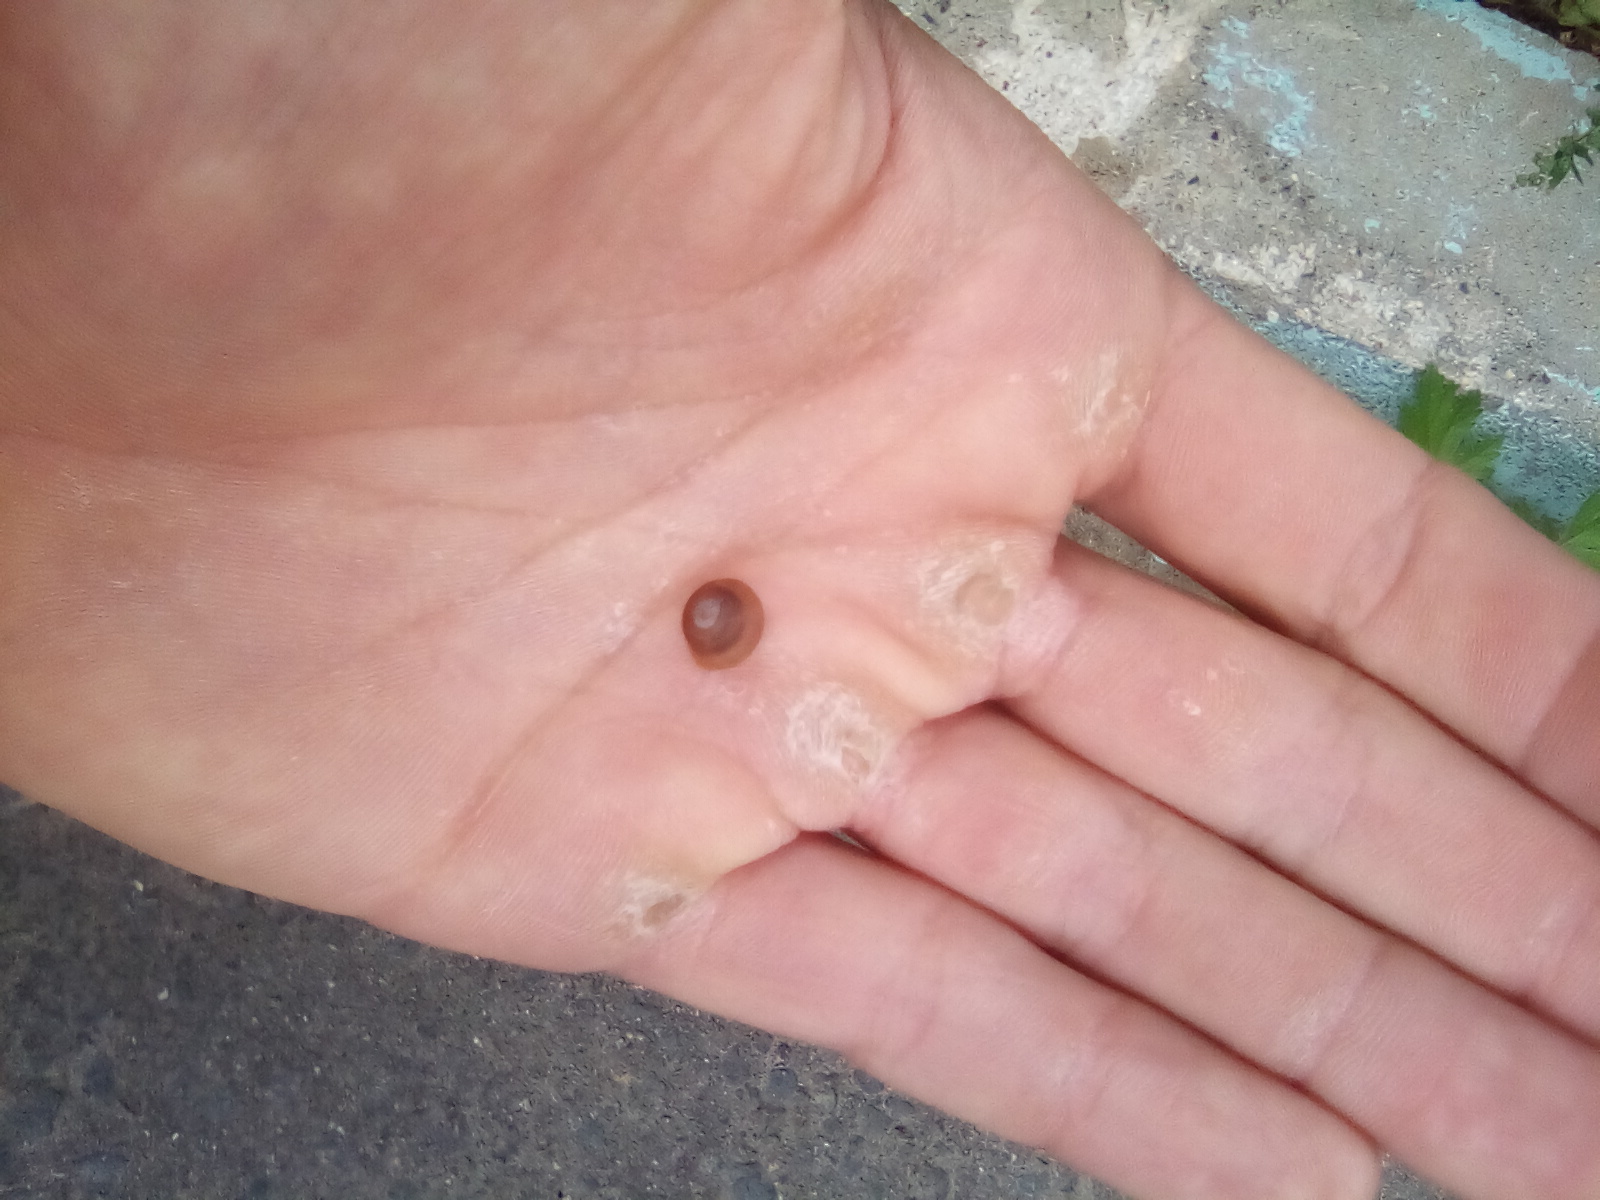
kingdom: Animalia
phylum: Mollusca
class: Gastropoda
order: Stylommatophora
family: Hygromiidae
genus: Trochulus
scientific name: Trochulus hispidus
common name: Hairy snail
